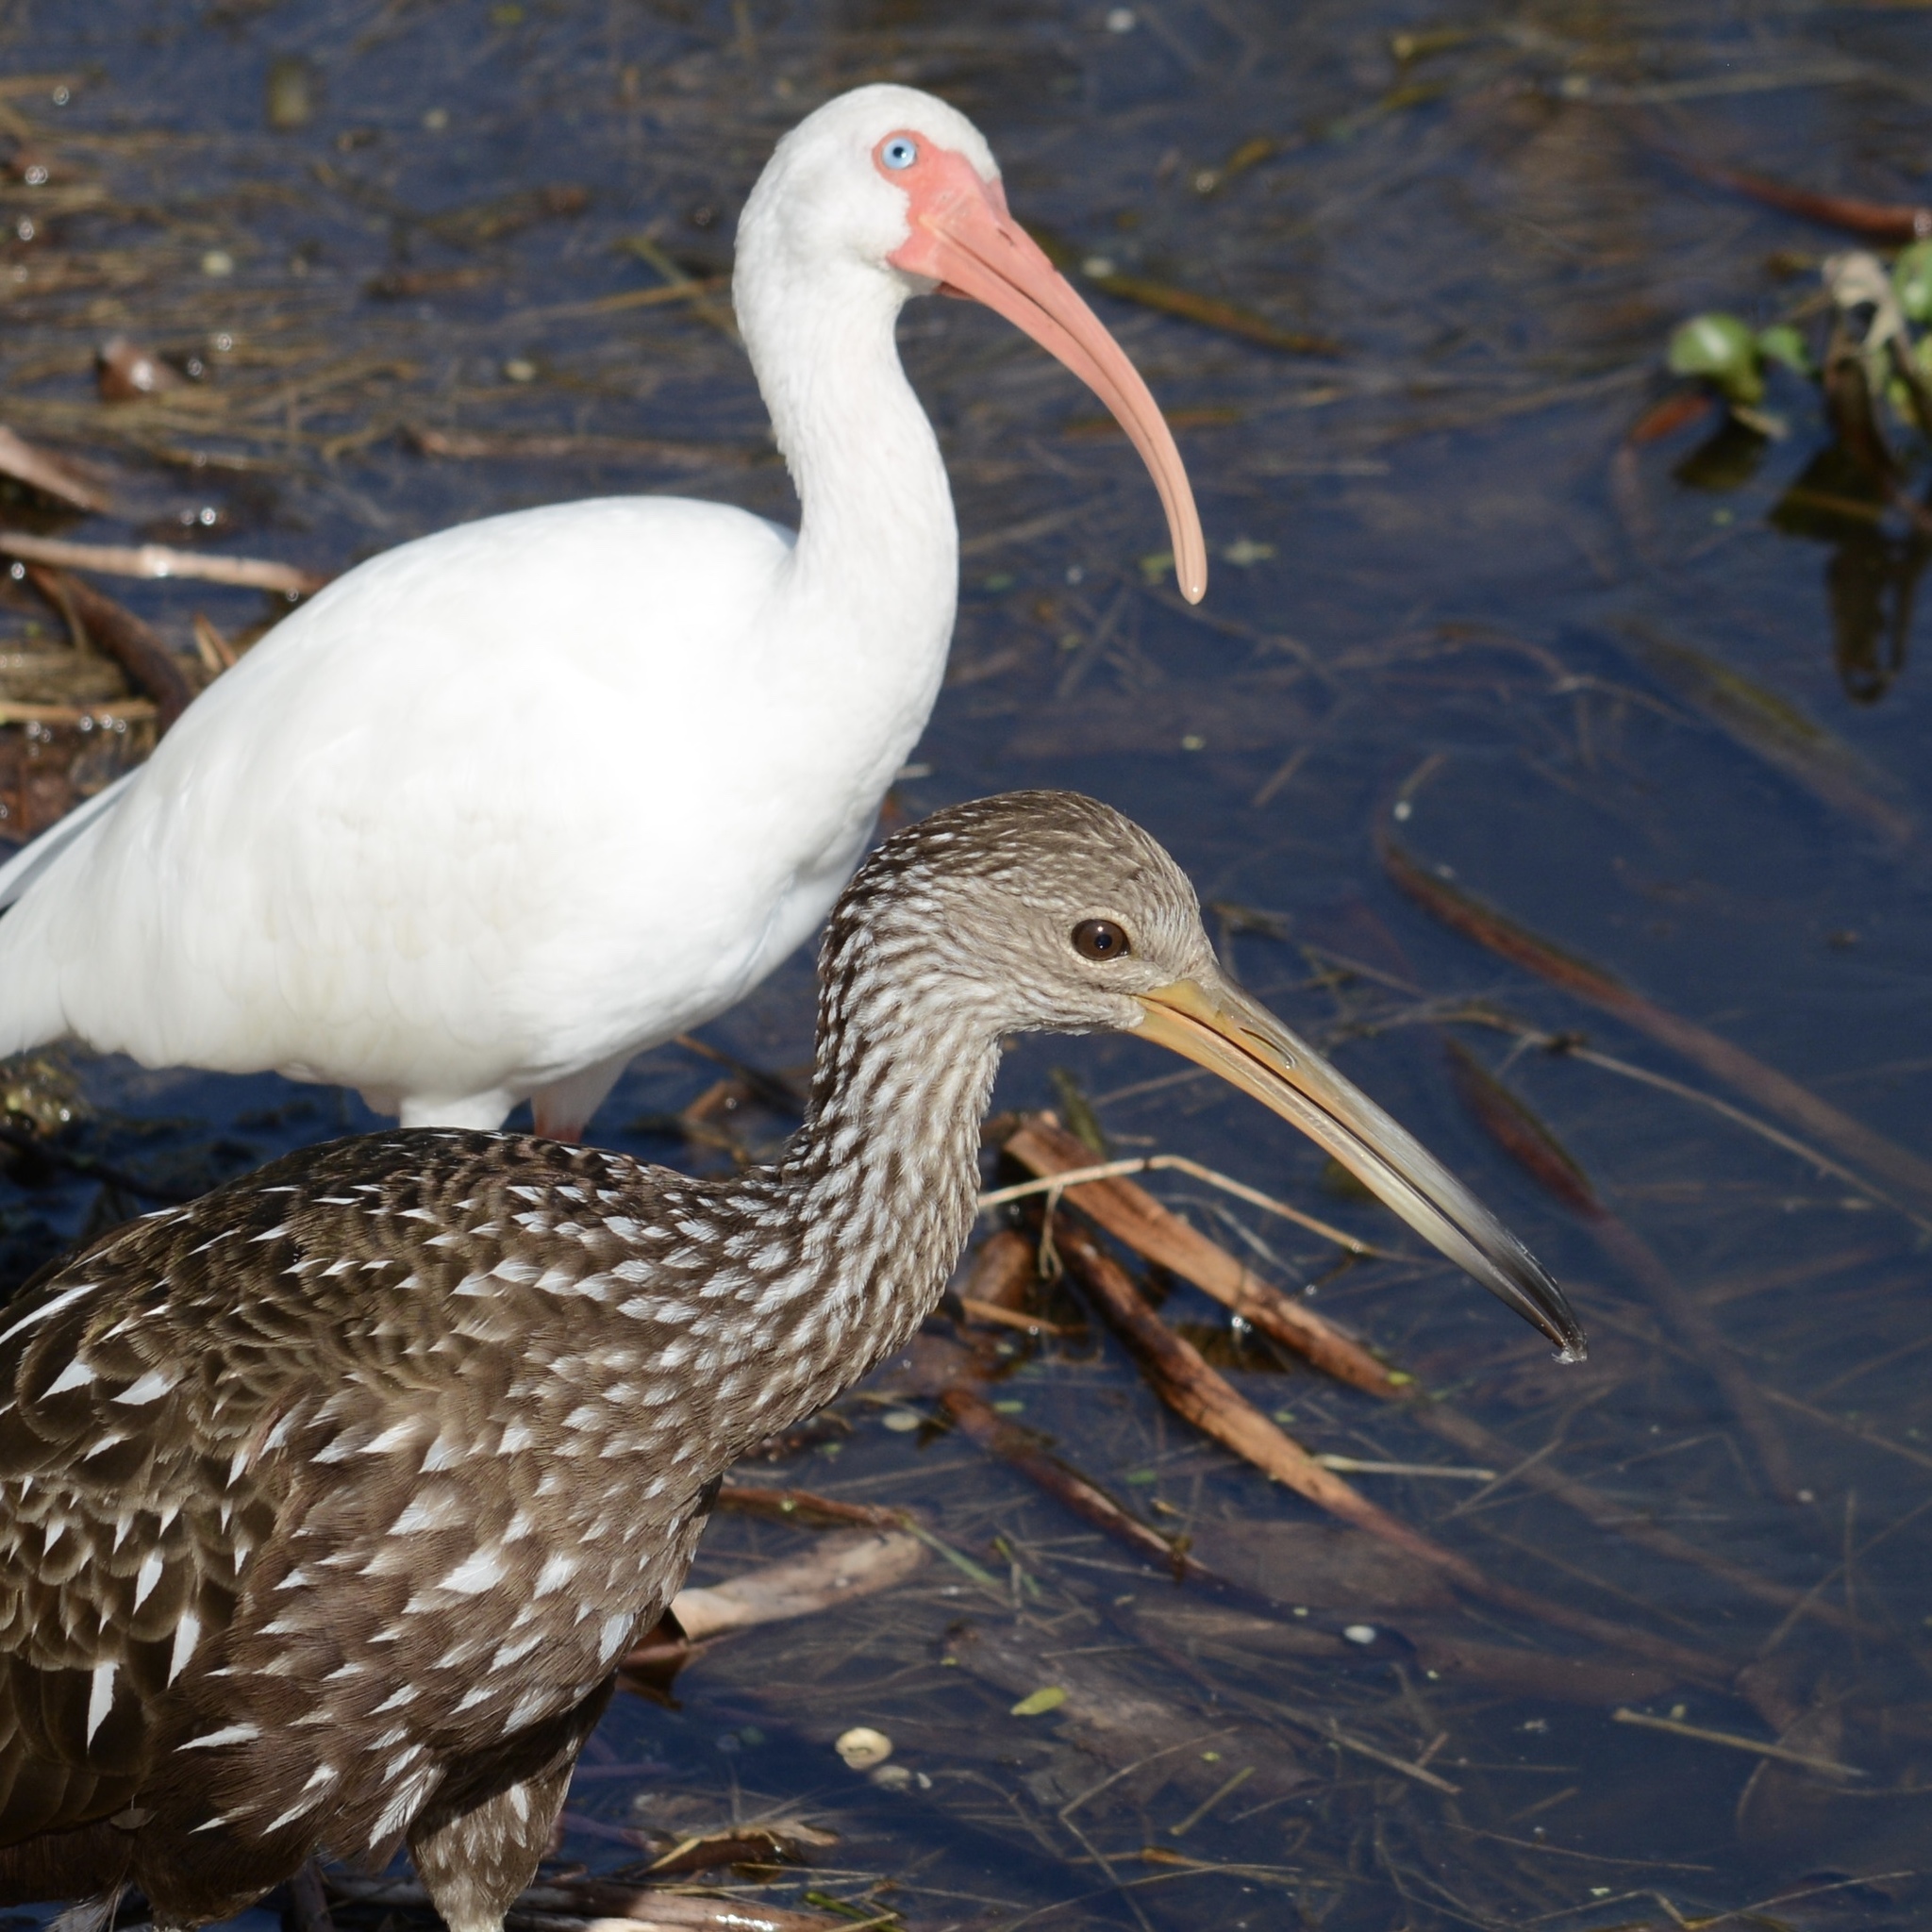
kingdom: Animalia
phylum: Chordata
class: Aves
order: Pelecaniformes
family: Threskiornithidae
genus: Eudocimus
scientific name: Eudocimus albus
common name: White ibis
